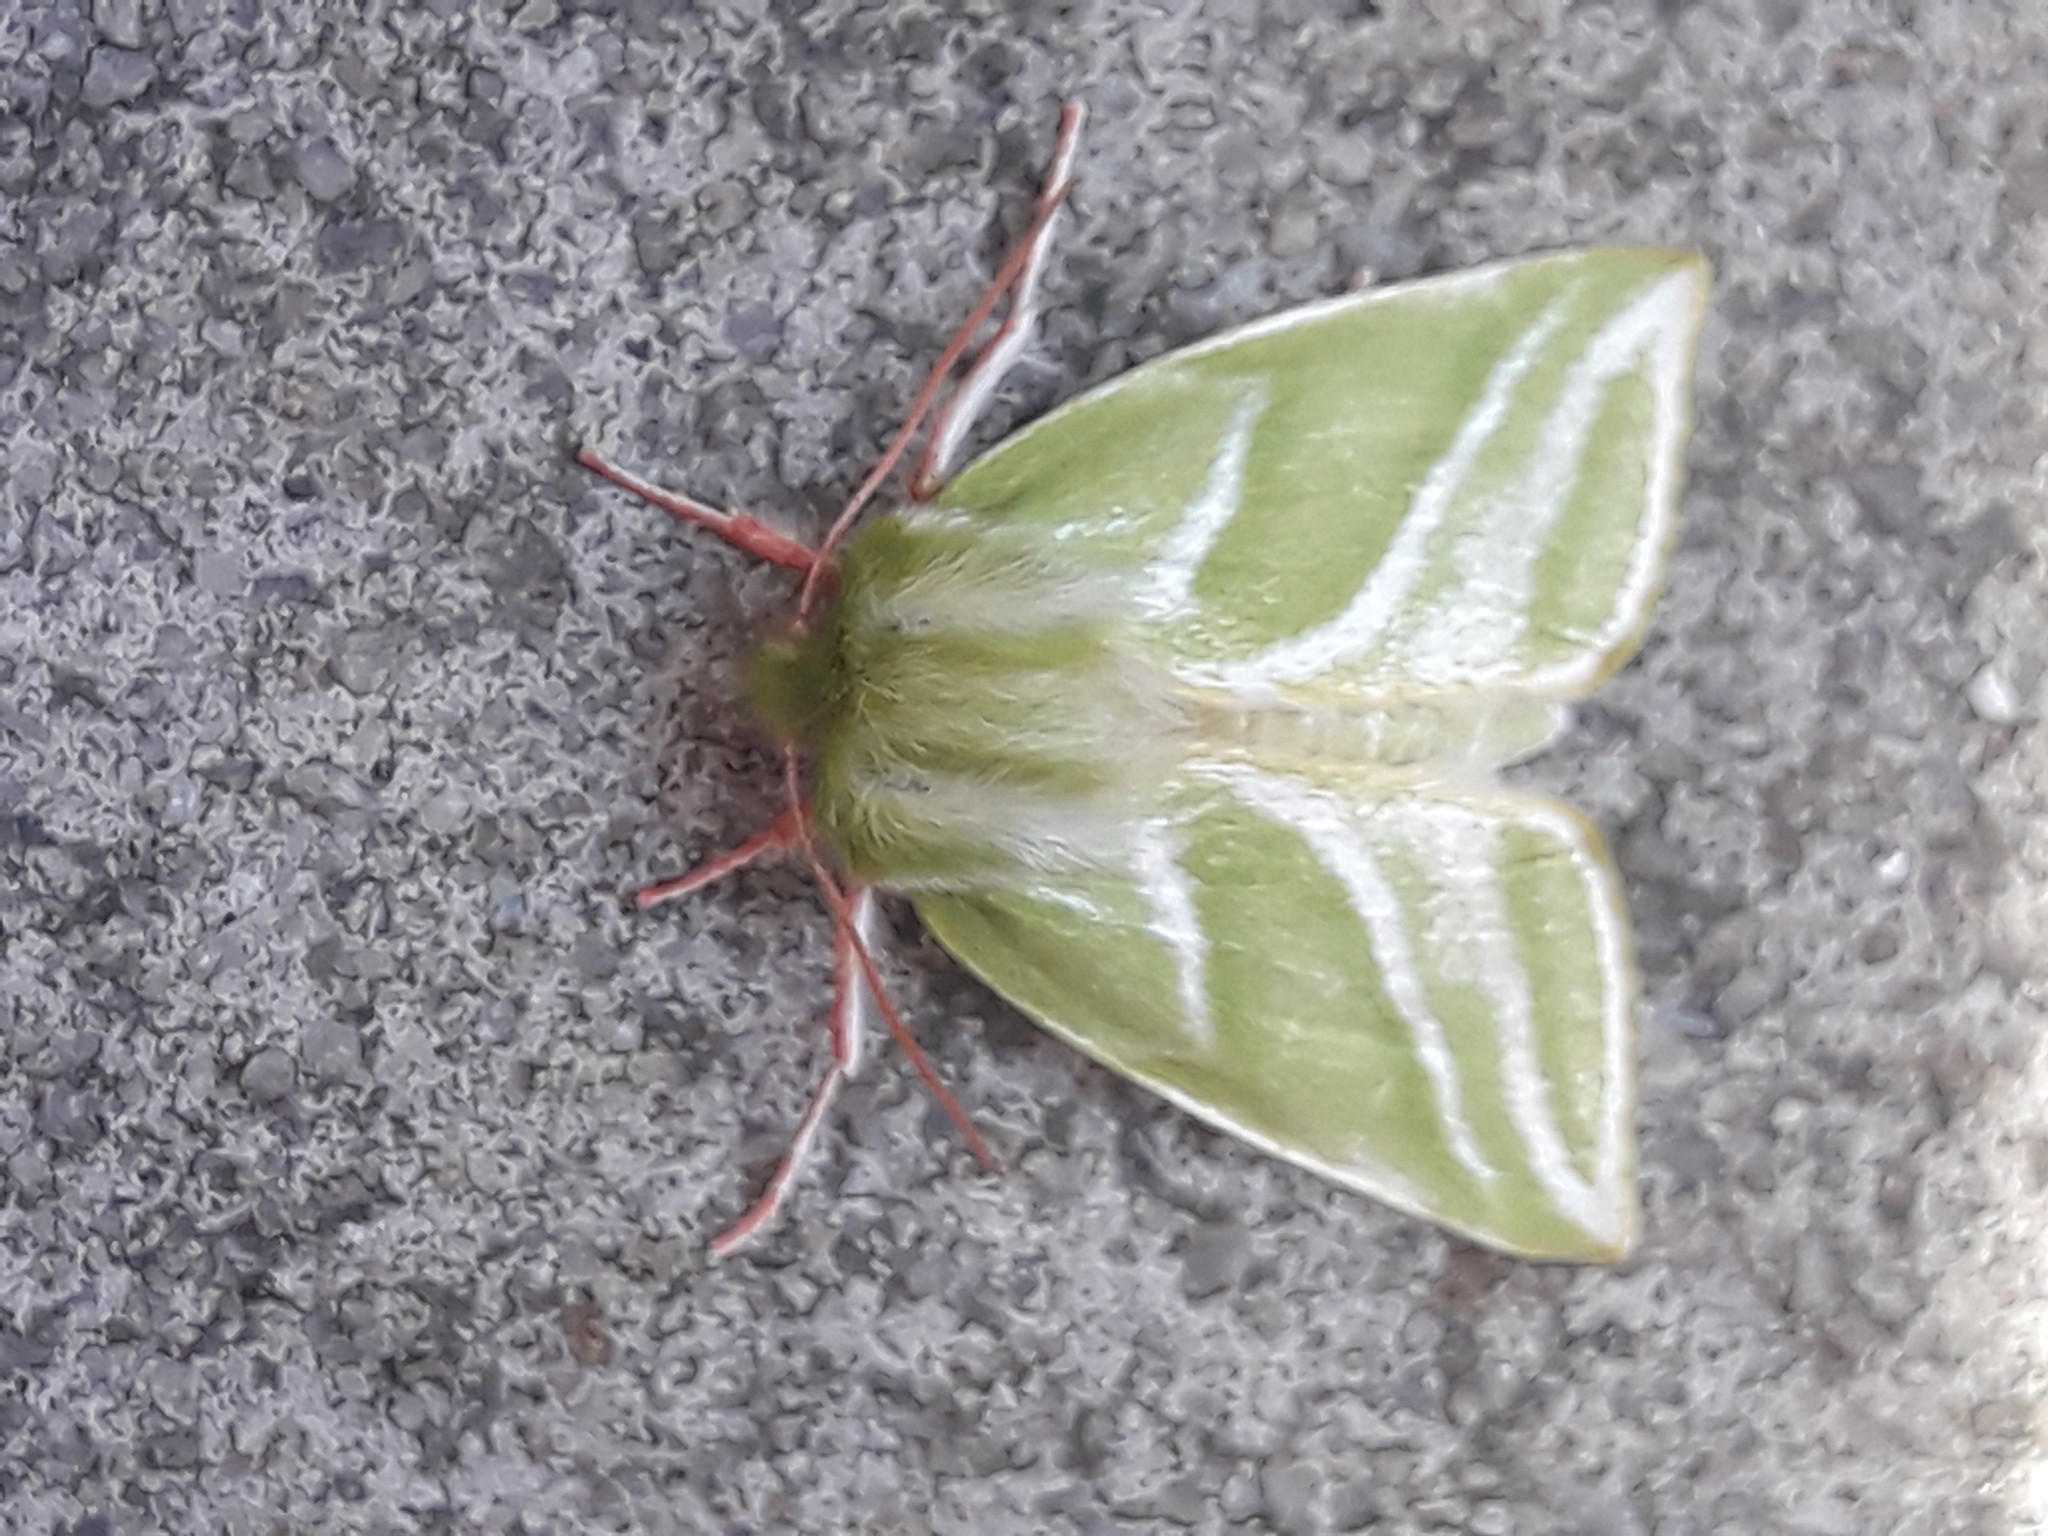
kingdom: Animalia
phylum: Arthropoda
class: Insecta
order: Lepidoptera
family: Nolidae
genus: Pseudoips
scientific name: Pseudoips prasinana
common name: Green silver-lines
